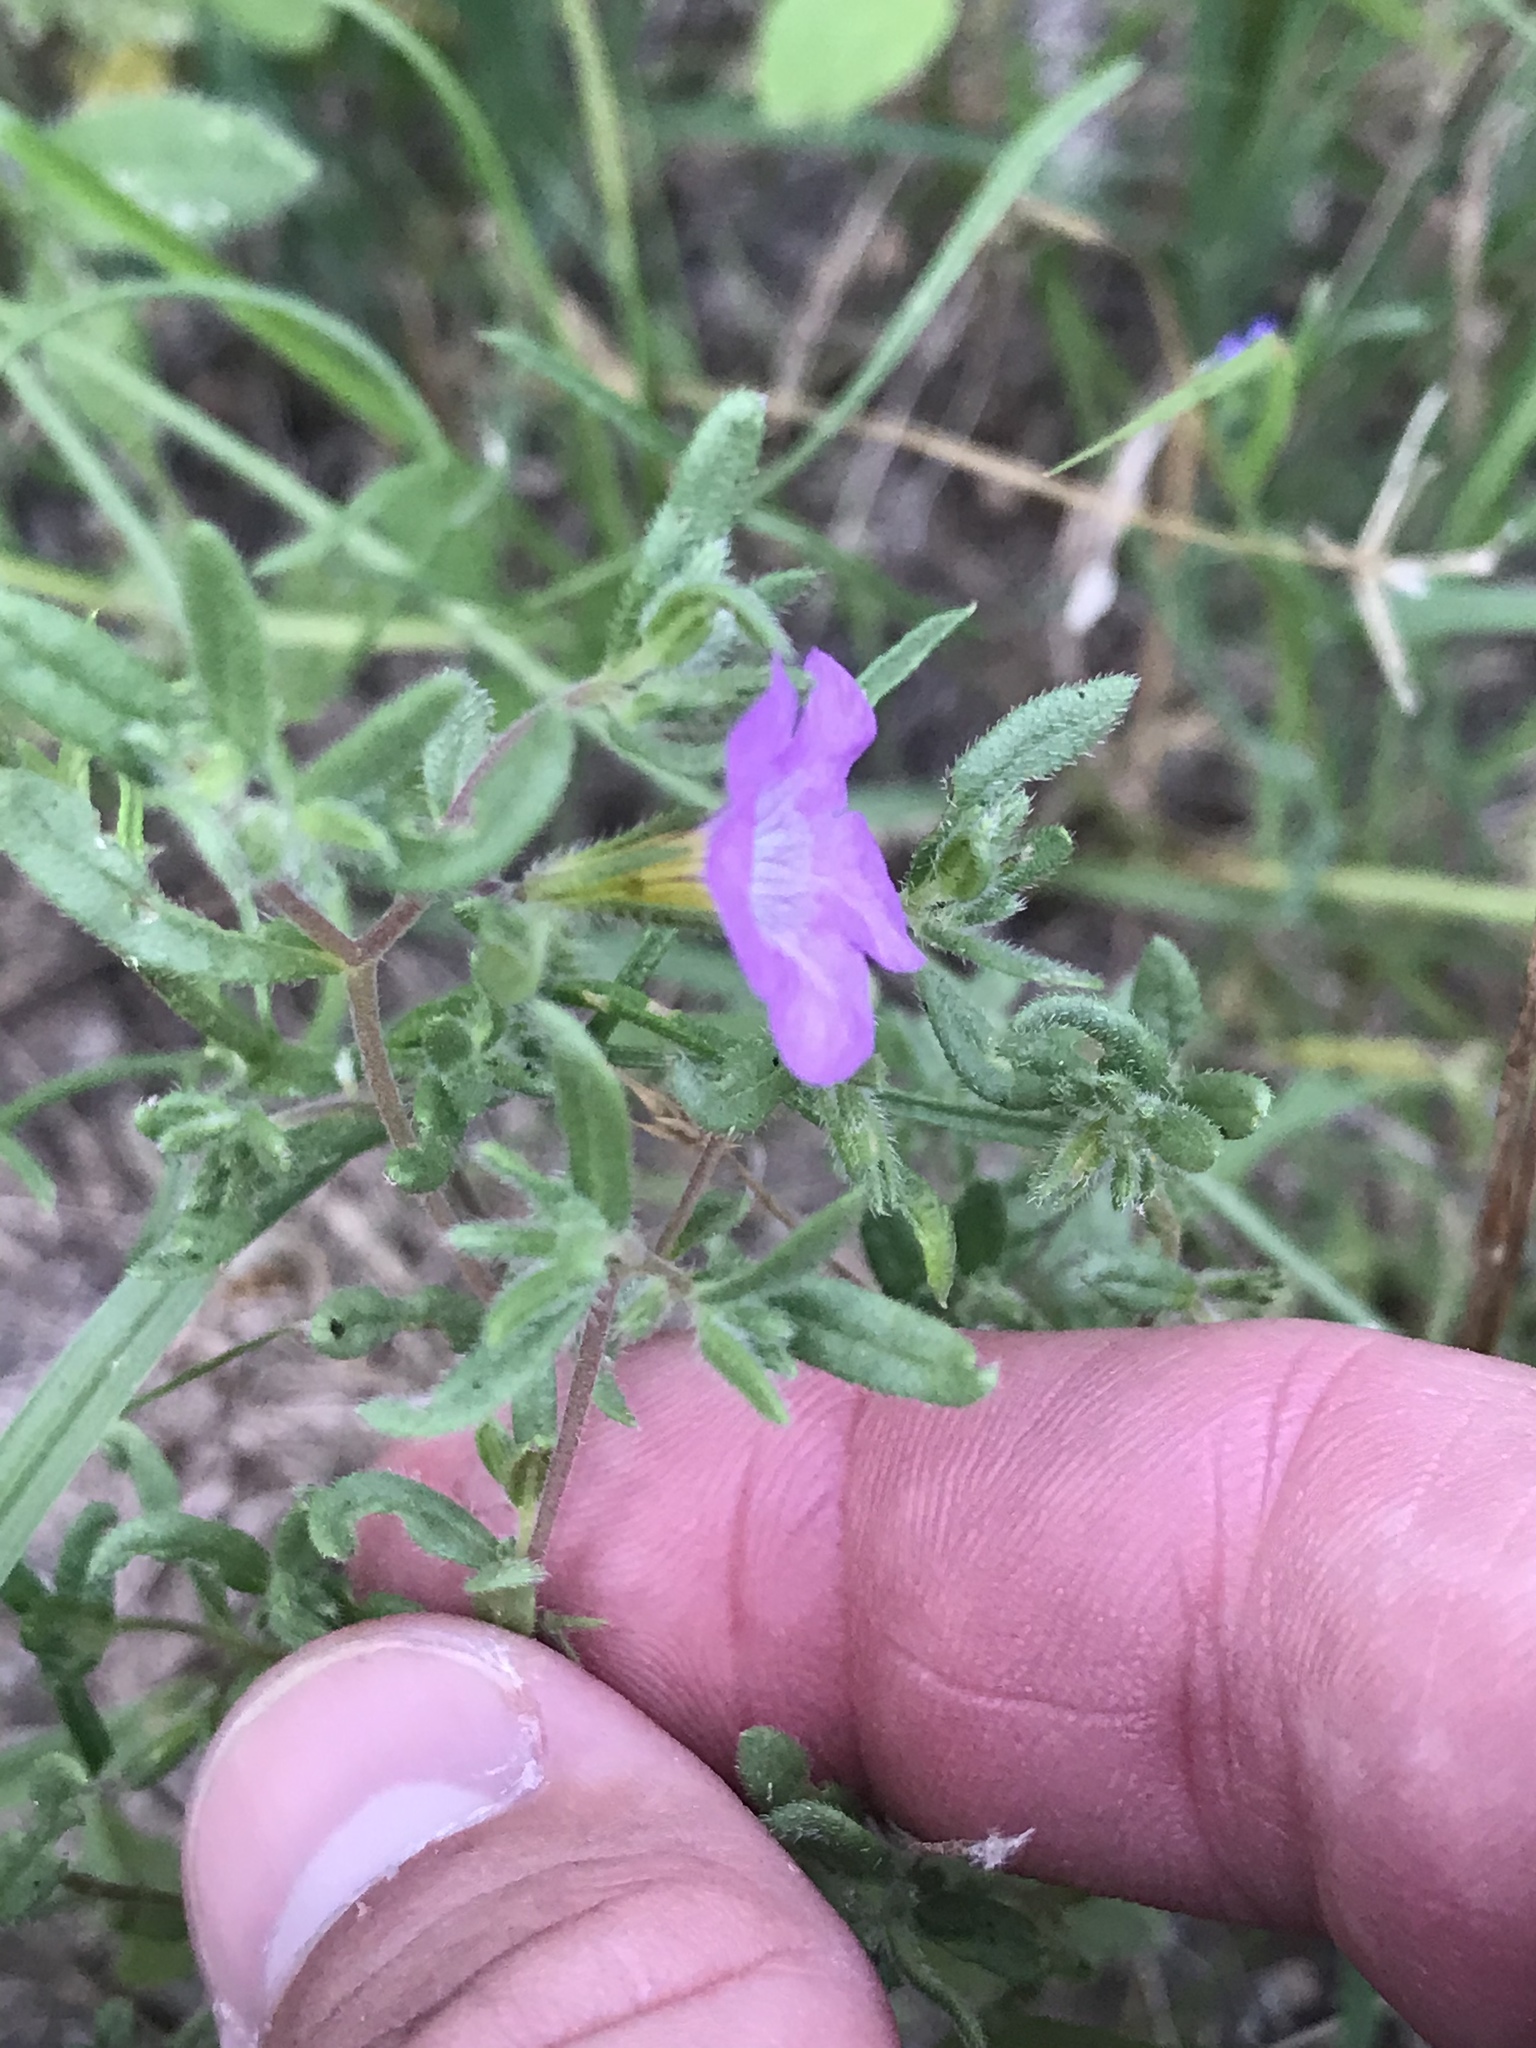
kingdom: Plantae
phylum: Tracheophyta
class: Magnoliopsida
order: Boraginales
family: Namaceae
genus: Nama
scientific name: Nama hispida
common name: Bristly nama
